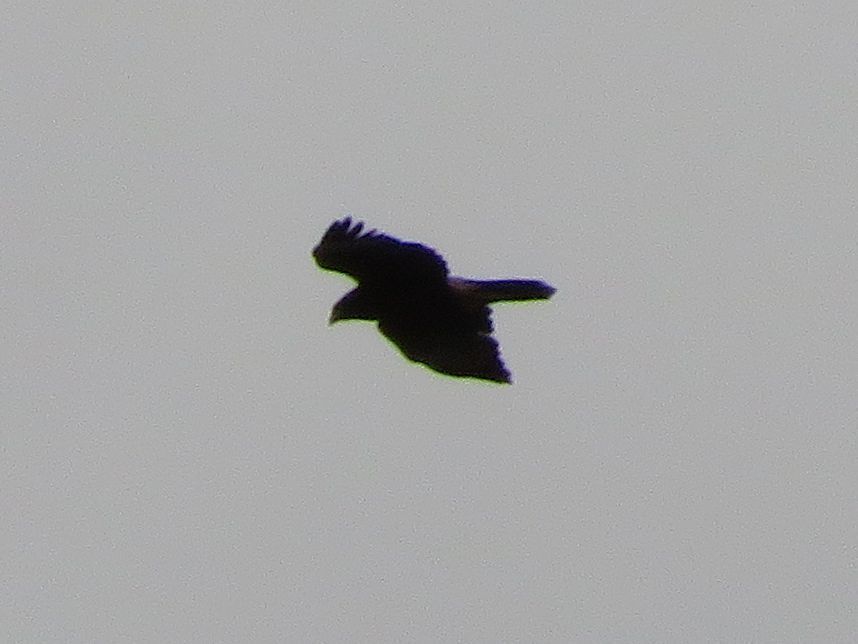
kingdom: Animalia
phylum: Chordata
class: Aves
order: Accipitriformes
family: Accipitridae
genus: Parabuteo
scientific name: Parabuteo unicinctus
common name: Harris's hawk
